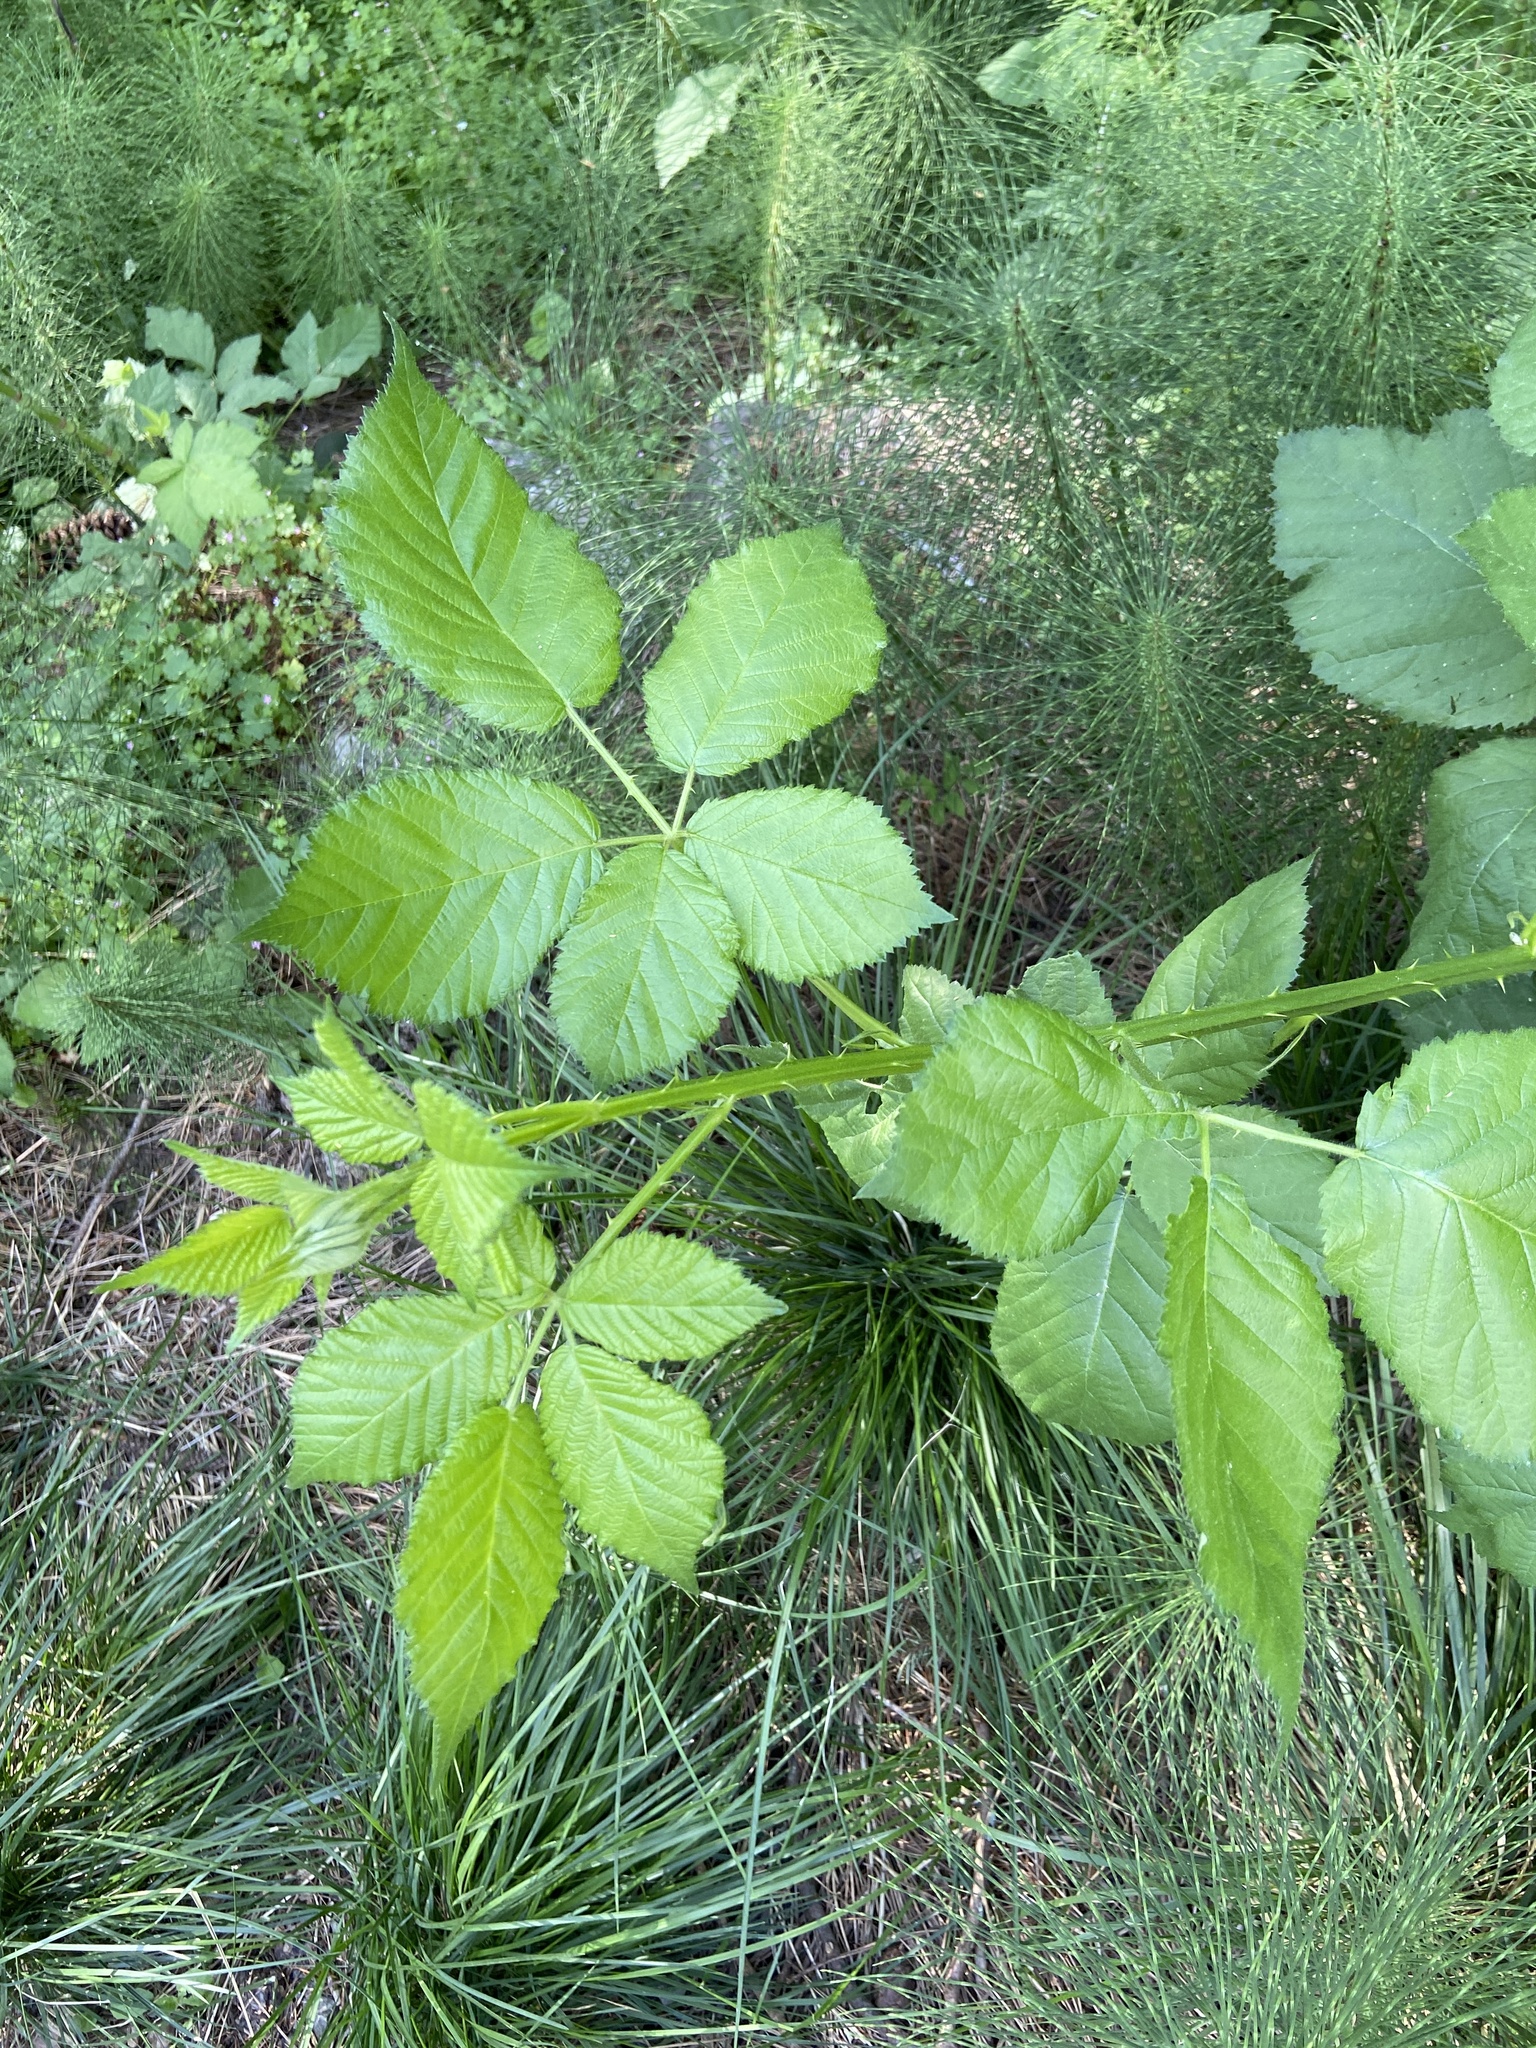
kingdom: Plantae
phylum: Tracheophyta
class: Magnoliopsida
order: Rosales
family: Rosaceae
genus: Rubus
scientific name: Rubus bifrons
